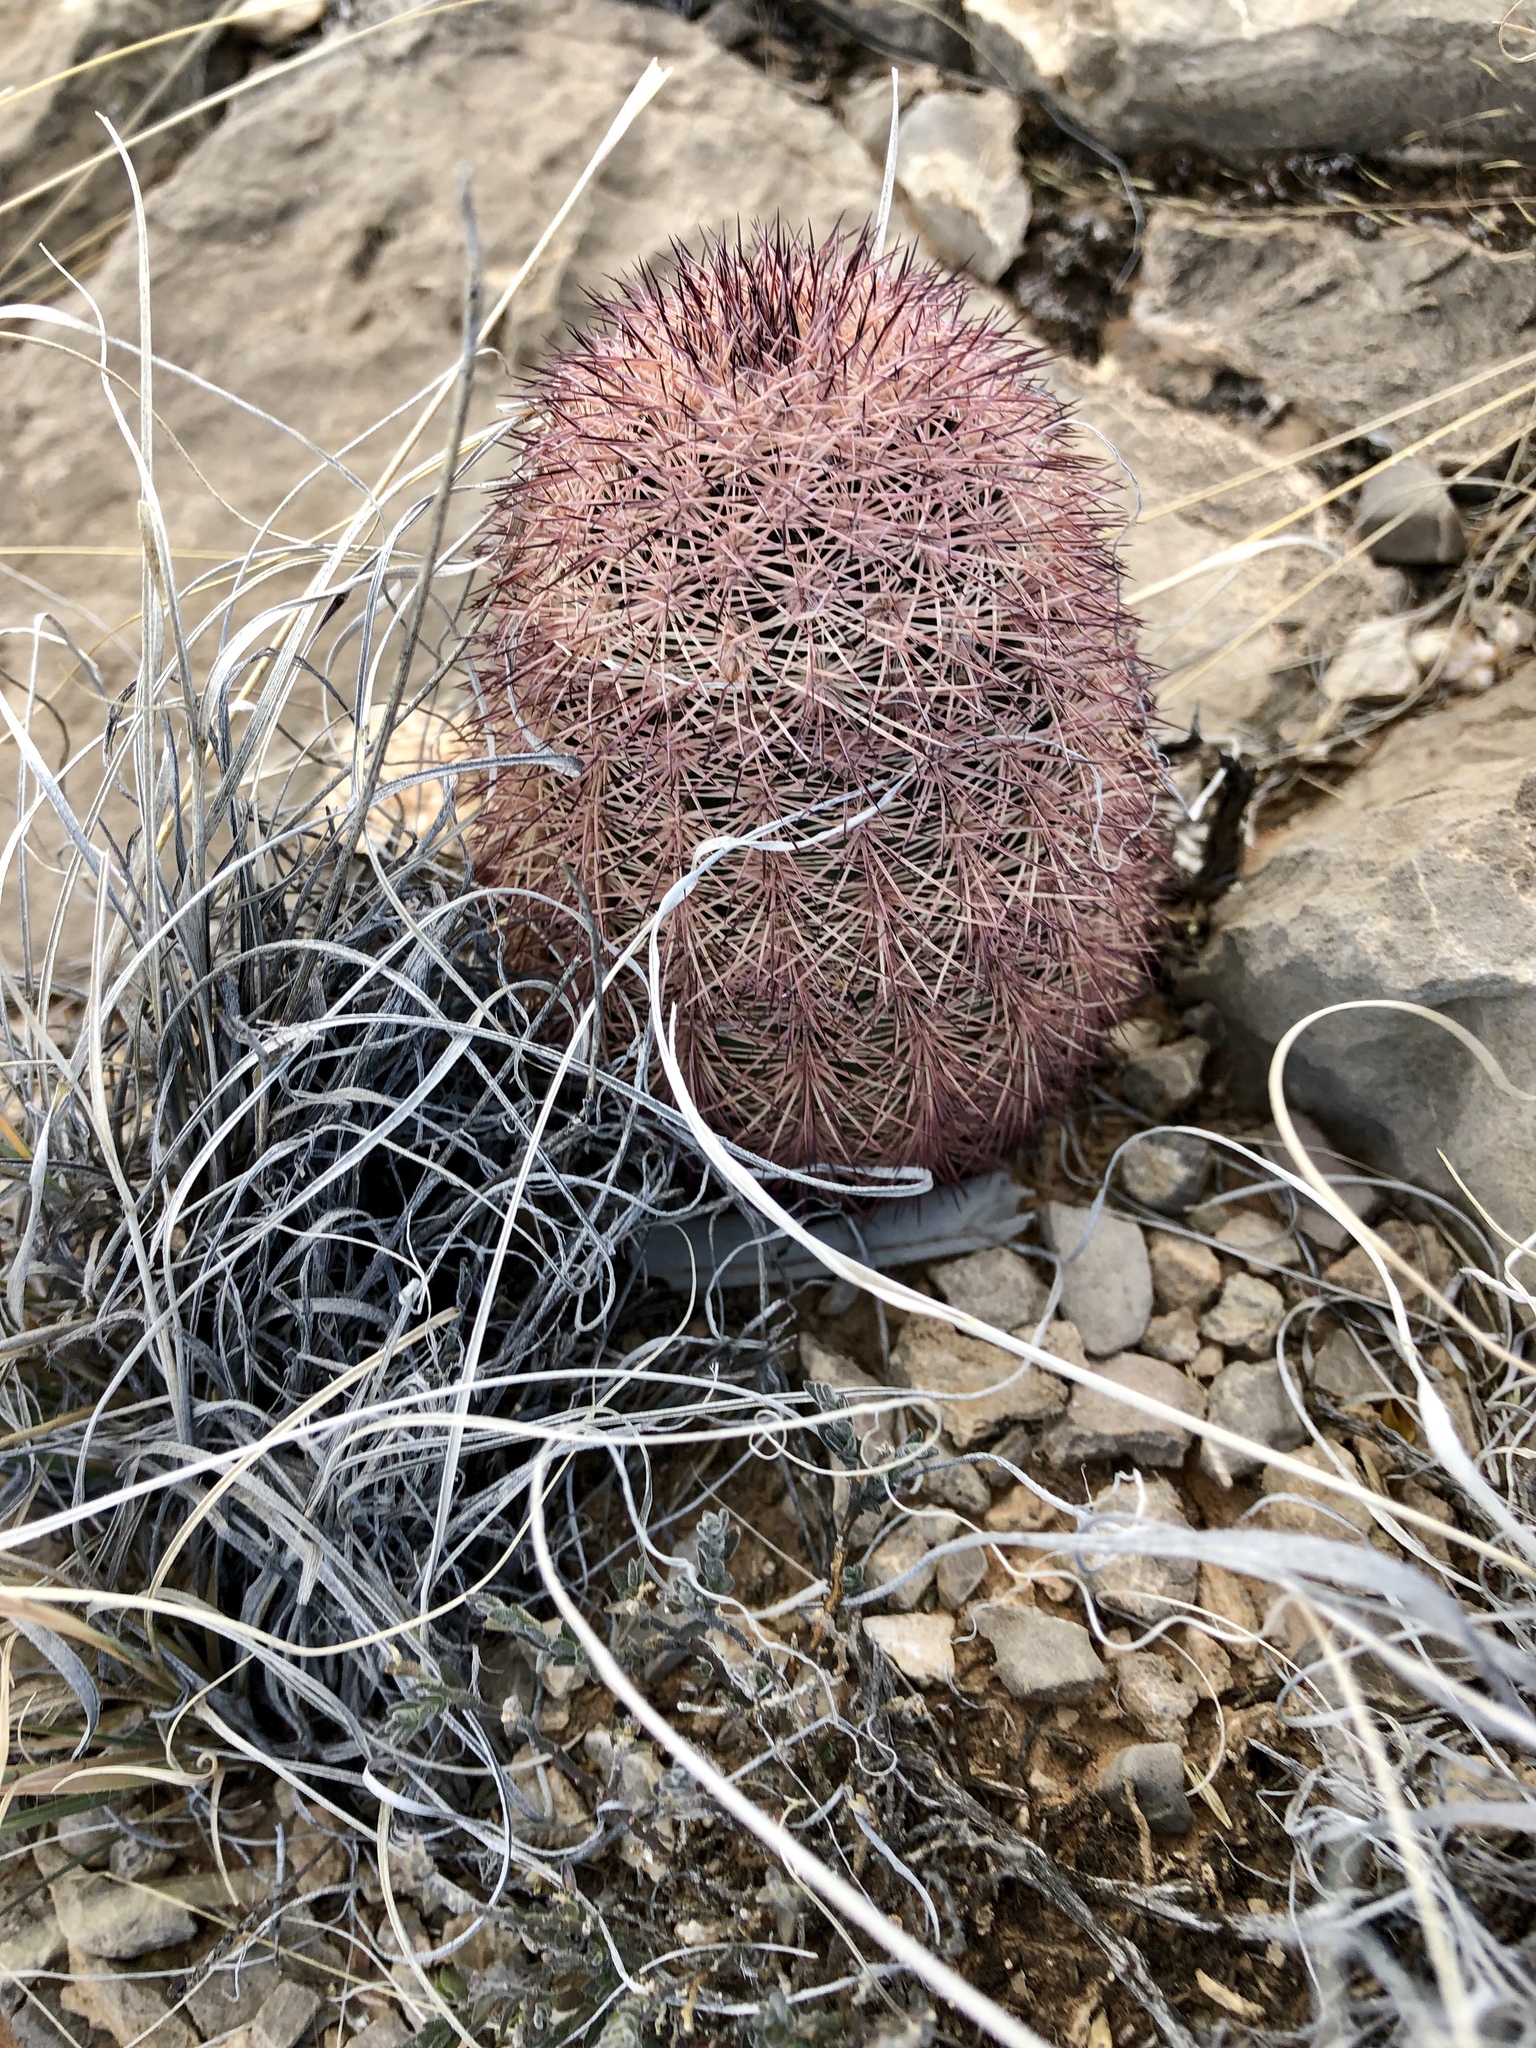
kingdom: Plantae
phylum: Tracheophyta
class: Magnoliopsida
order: Caryophyllales
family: Cactaceae
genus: Echinocereus
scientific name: Echinocereus dasyacanthus
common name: Spiny hedgehog cactus
